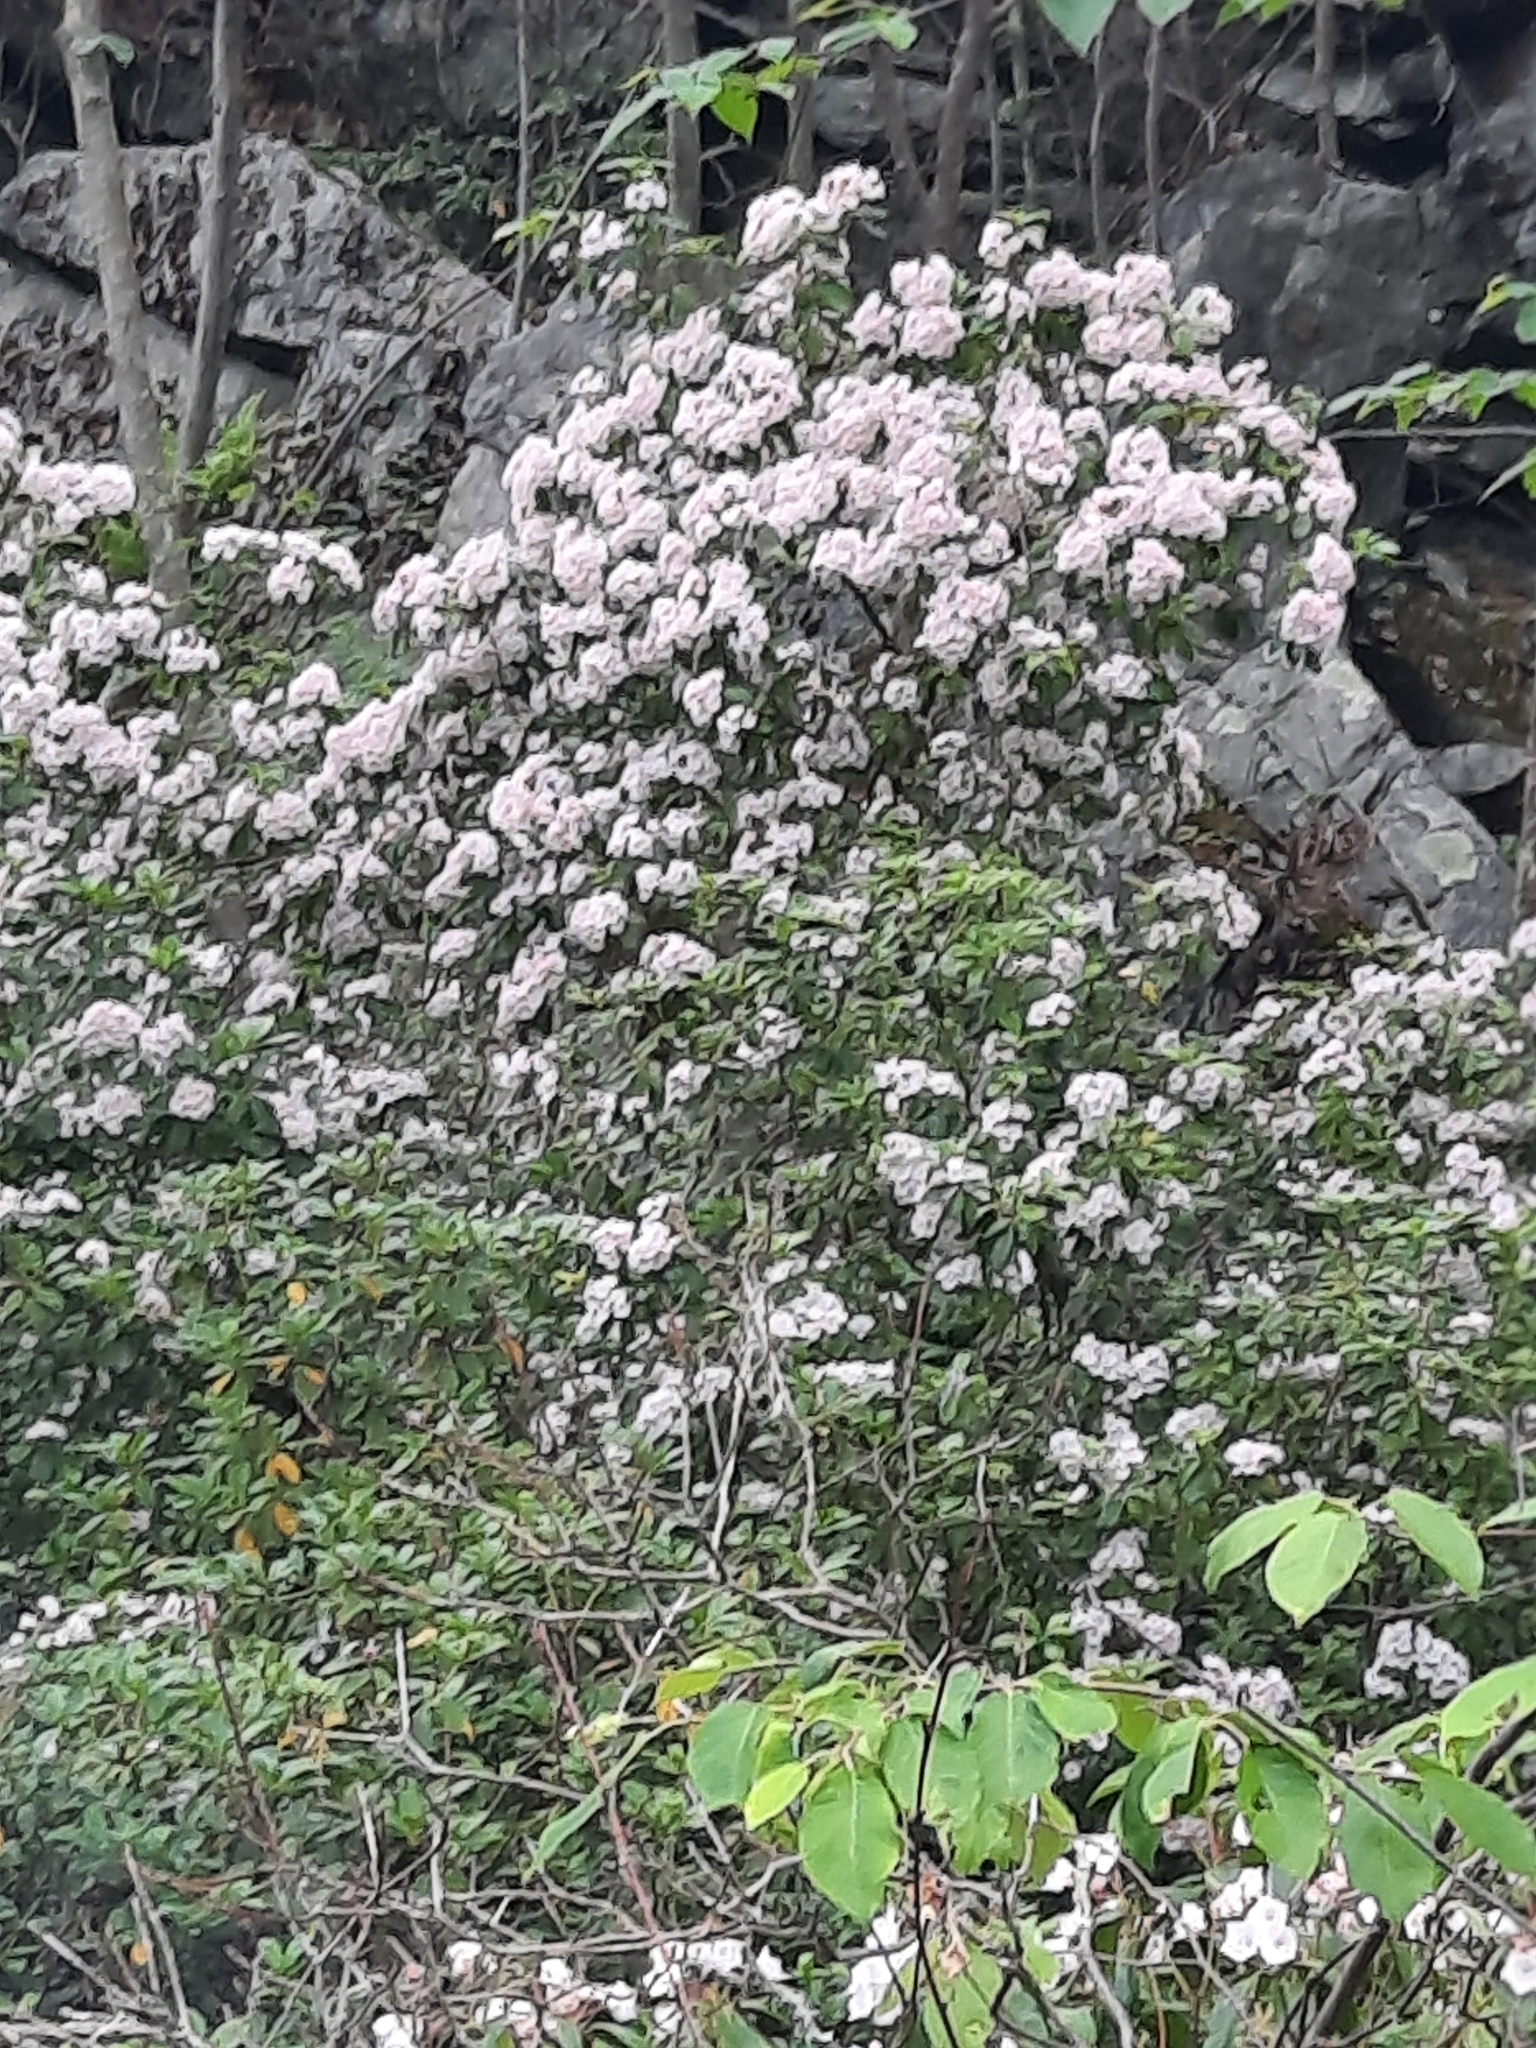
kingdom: Plantae
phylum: Tracheophyta
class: Magnoliopsida
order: Ericales
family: Ericaceae
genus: Kalmia
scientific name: Kalmia latifolia
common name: Mountain-laurel
